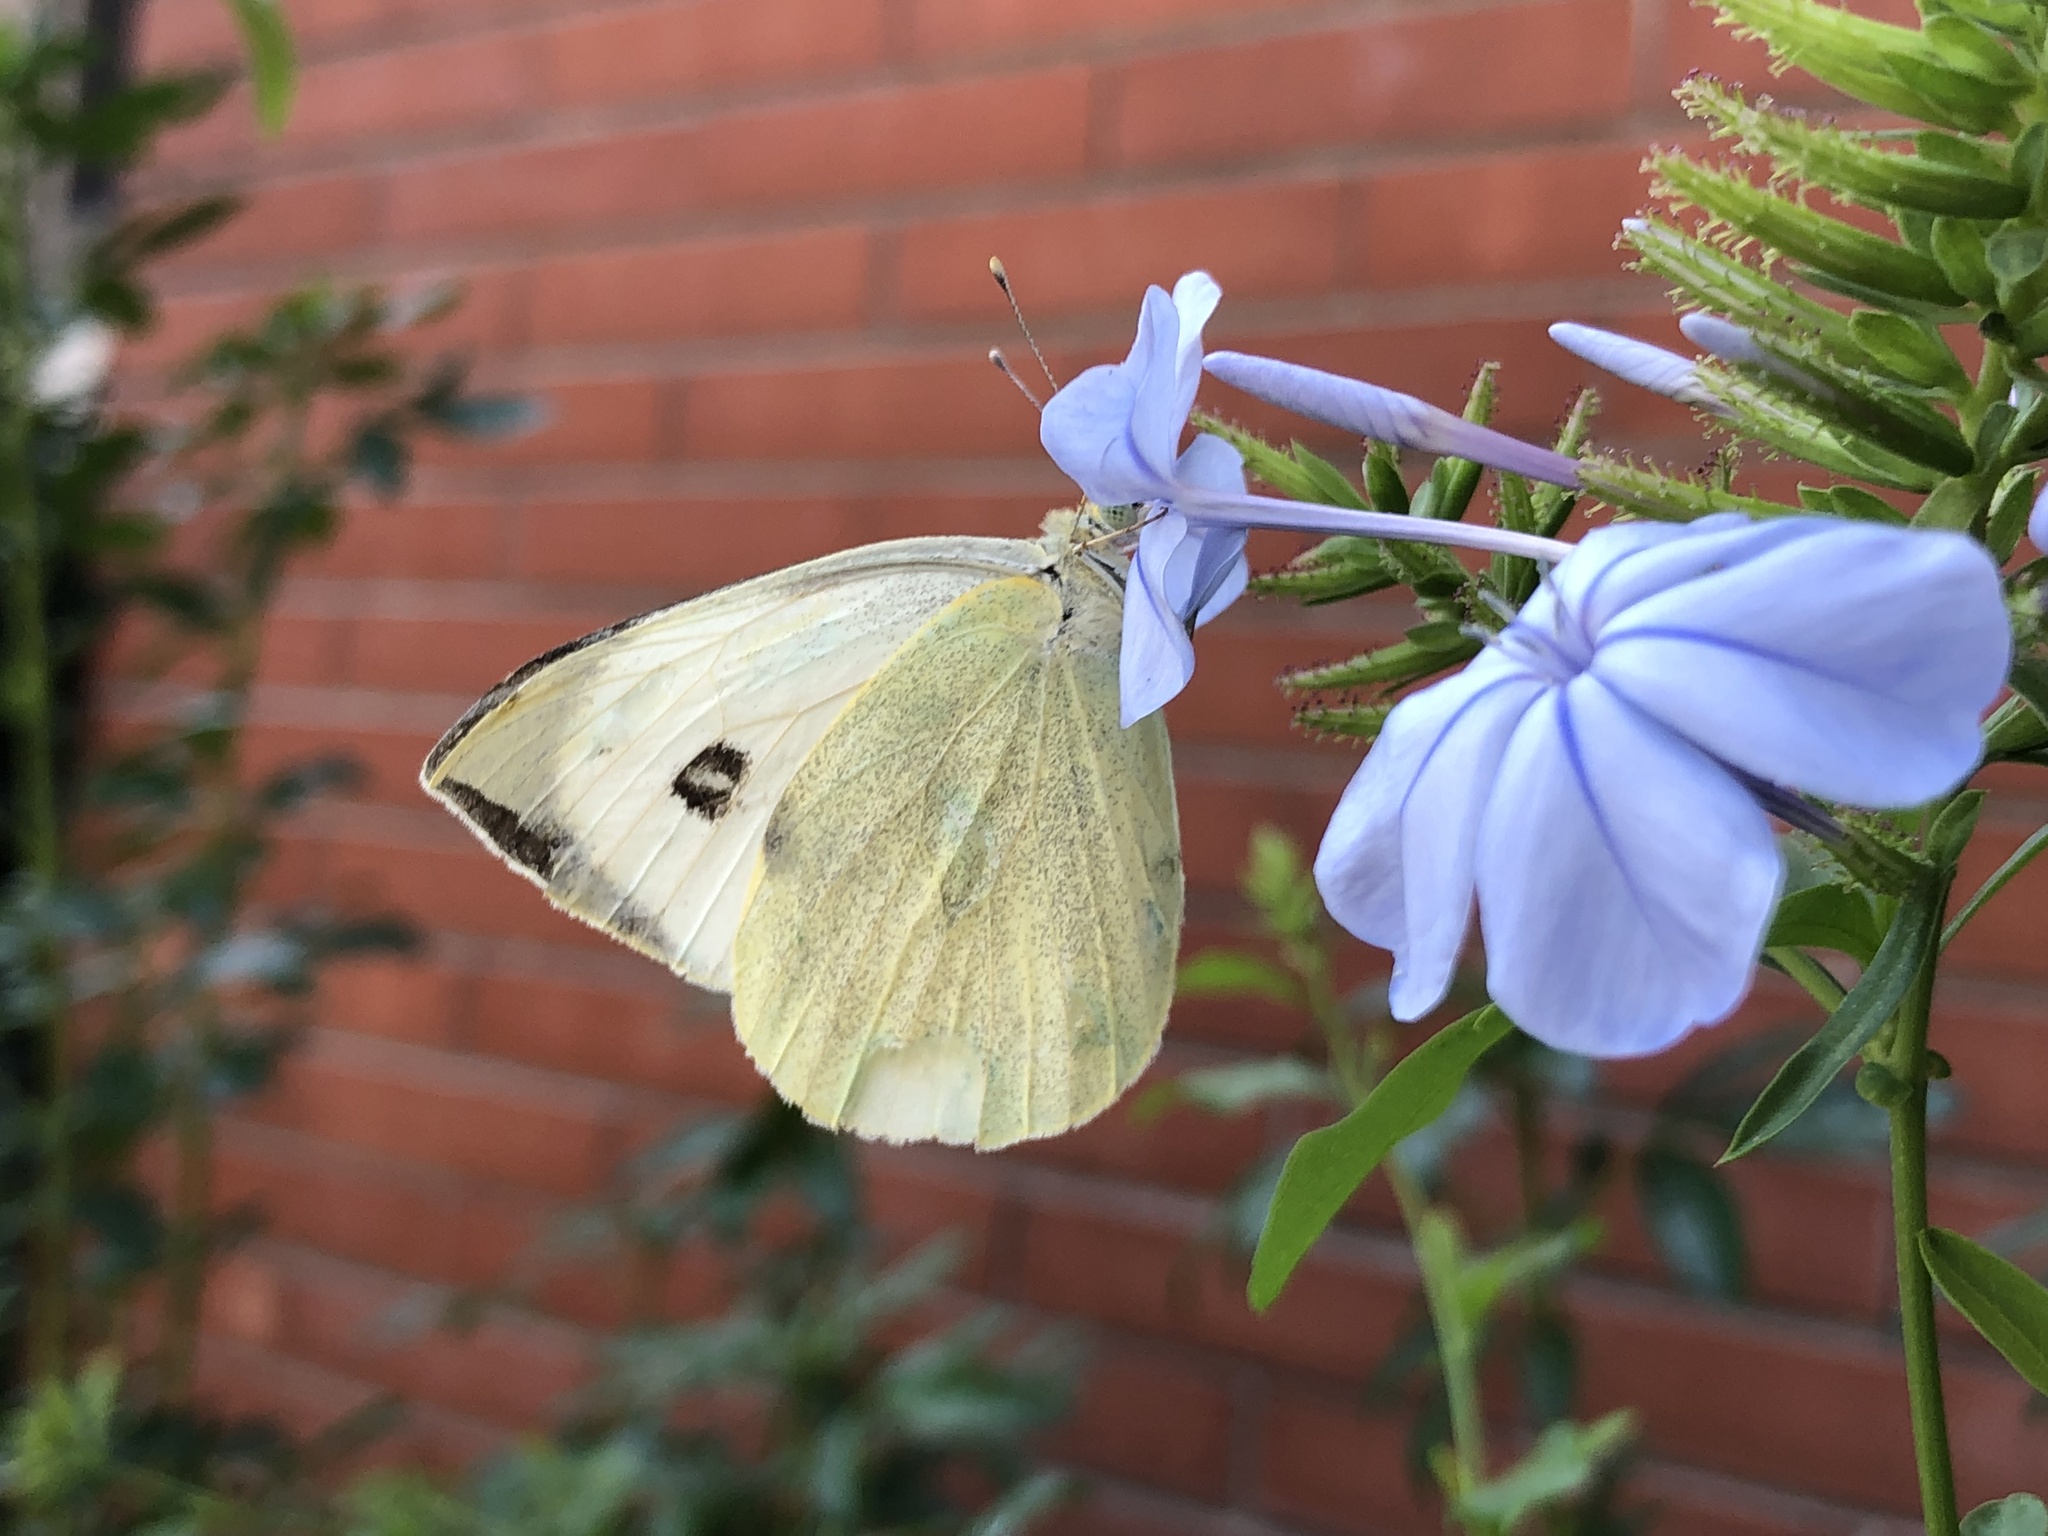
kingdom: Animalia
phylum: Arthropoda
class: Insecta
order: Lepidoptera
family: Pieridae
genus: Pieris
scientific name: Pieris brassicae
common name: Large white
